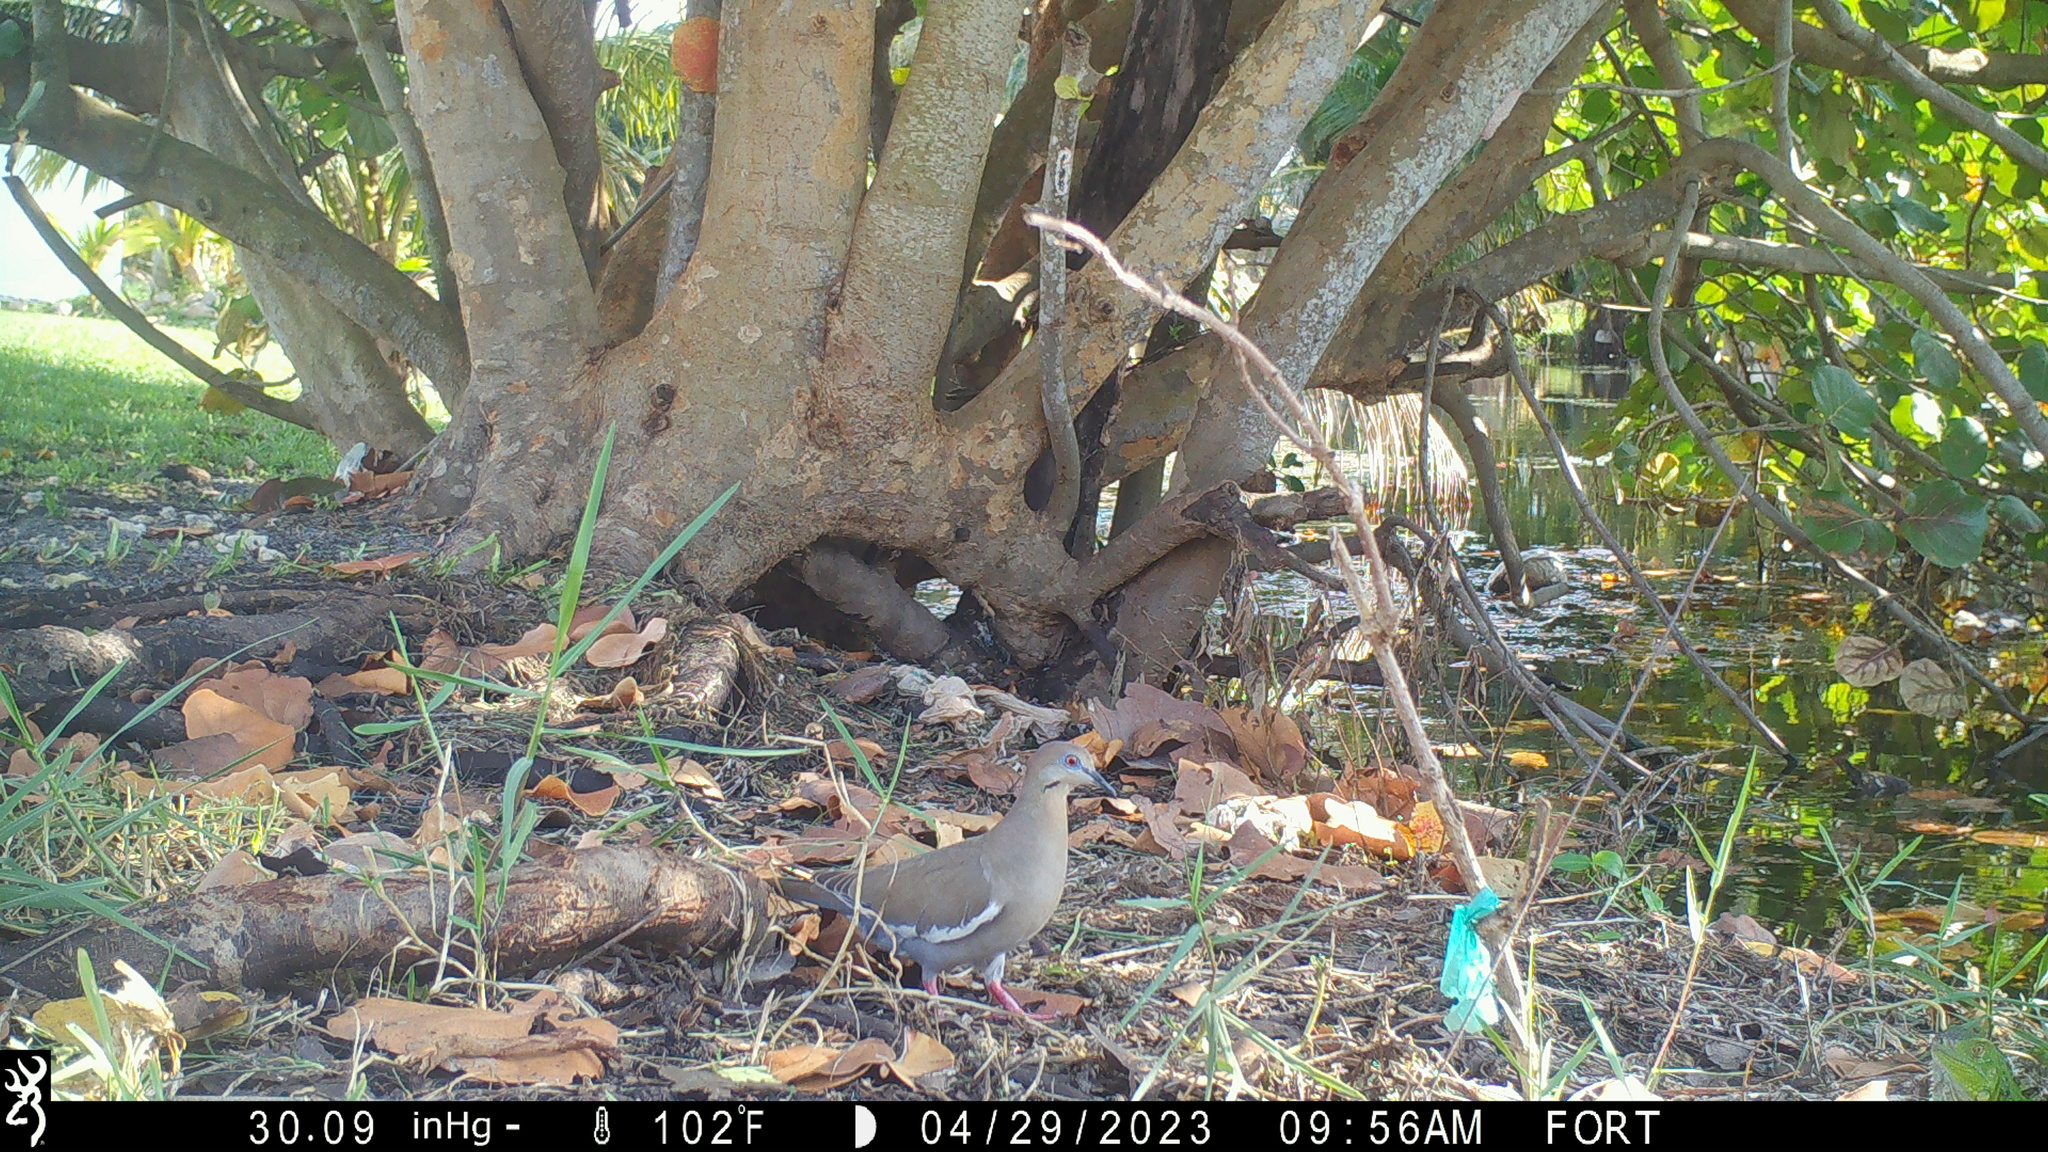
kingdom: Animalia
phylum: Chordata
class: Aves
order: Columbiformes
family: Columbidae
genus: Zenaida
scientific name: Zenaida asiatica
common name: White-winged dove
